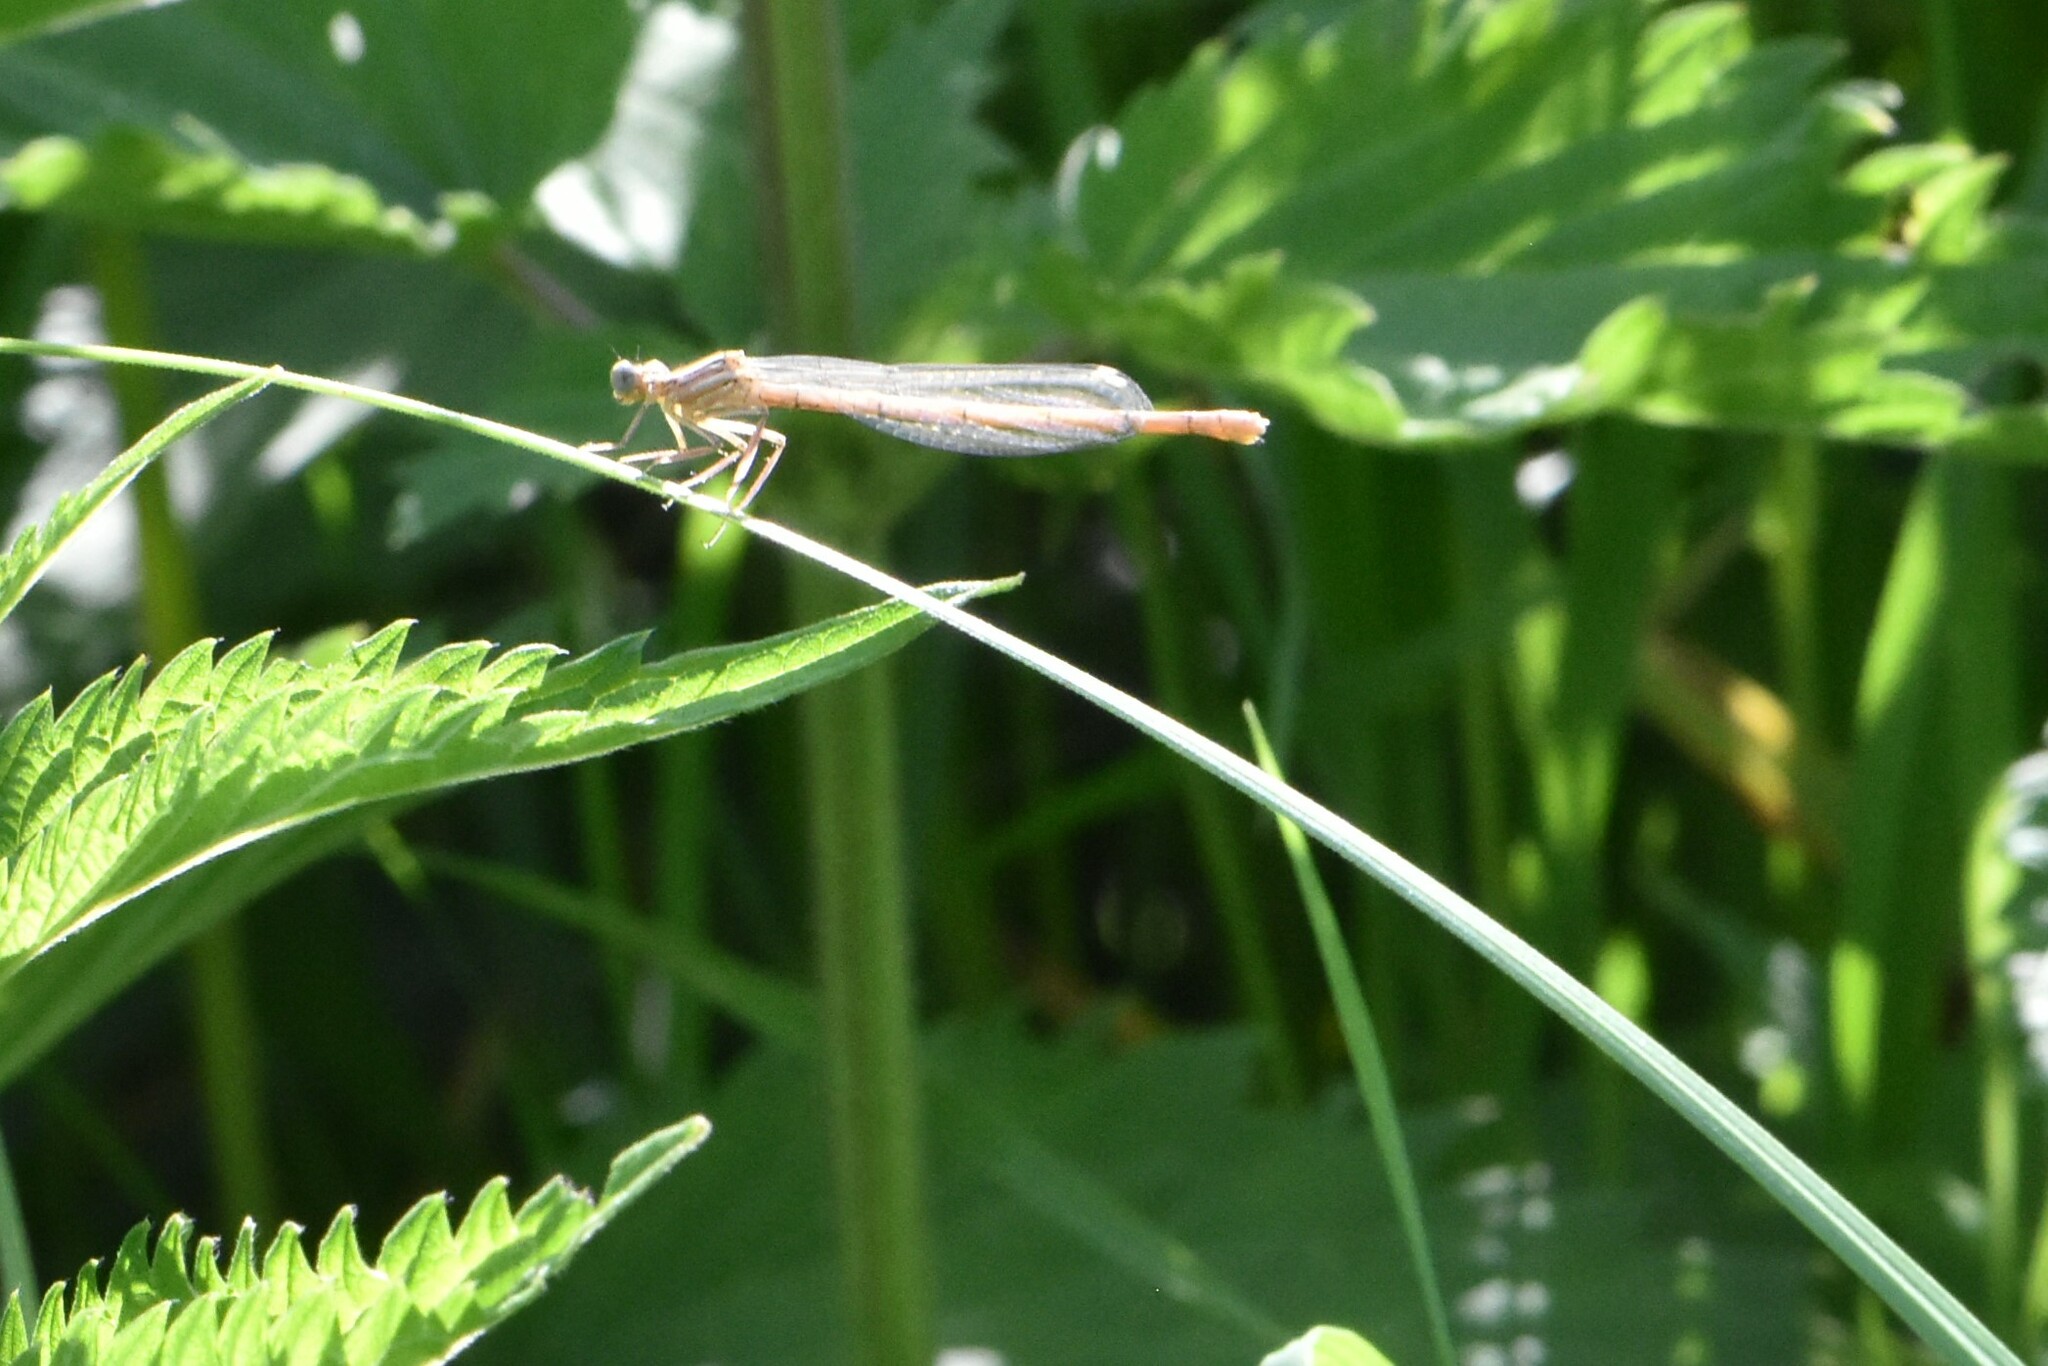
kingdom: Animalia
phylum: Arthropoda
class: Insecta
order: Odonata
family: Platycnemididae
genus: Platycnemis
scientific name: Platycnemis pennipes
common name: White-legged damselfly
